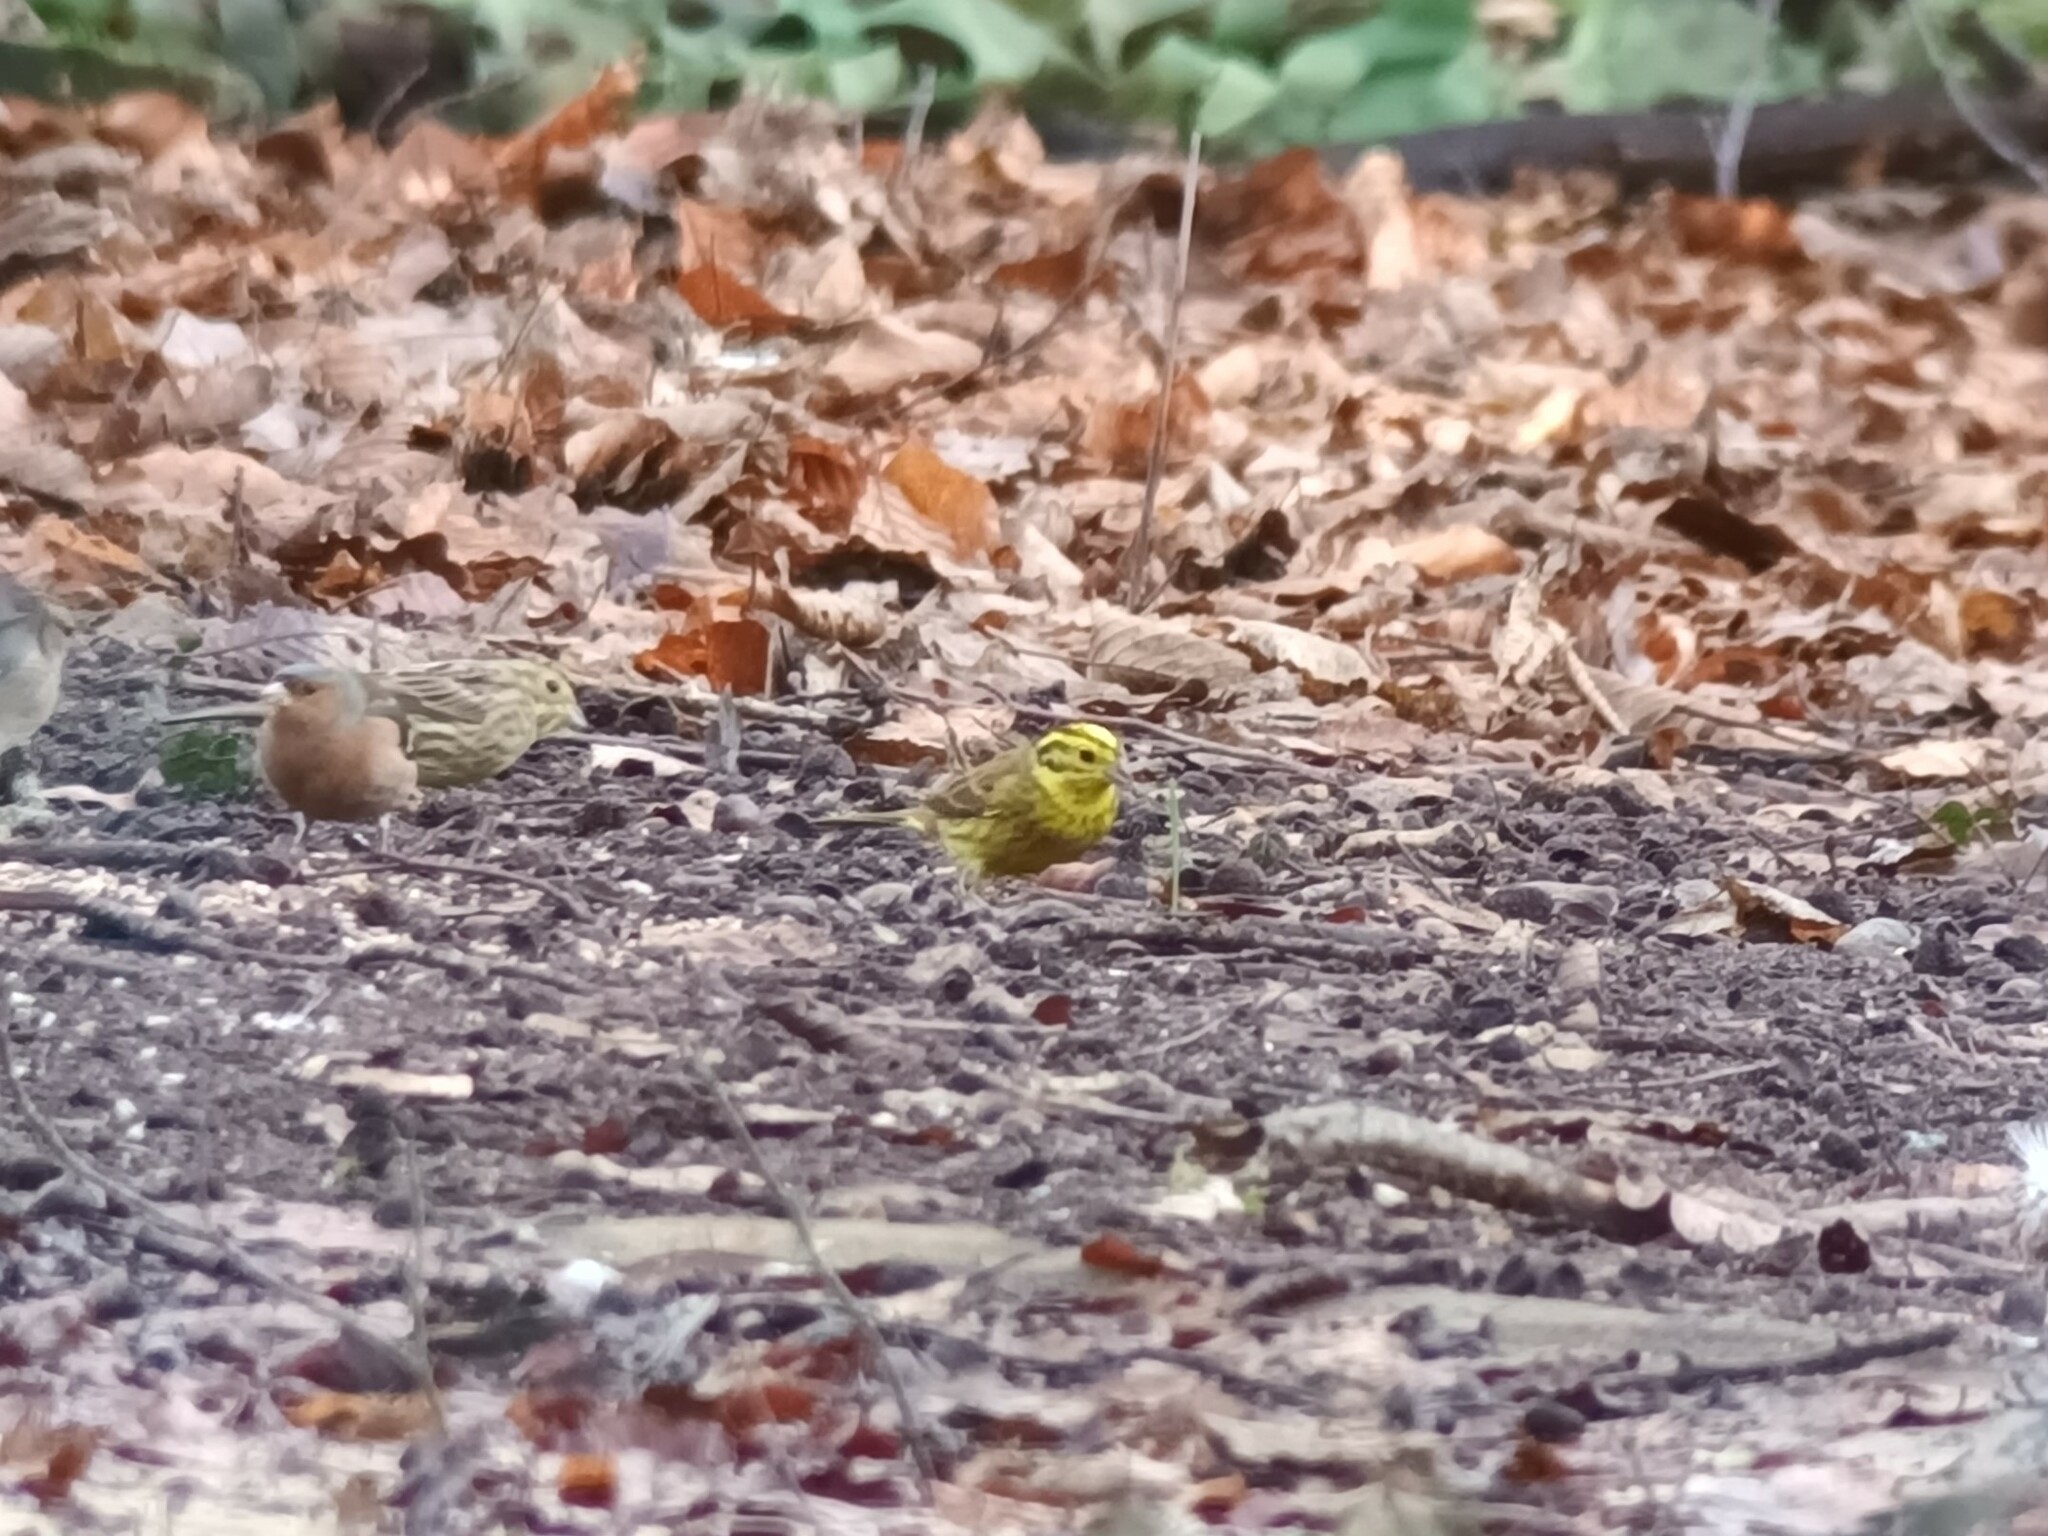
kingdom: Animalia
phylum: Chordata
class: Aves
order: Passeriformes
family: Emberizidae
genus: Emberiza
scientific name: Emberiza citrinella
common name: Yellowhammer
